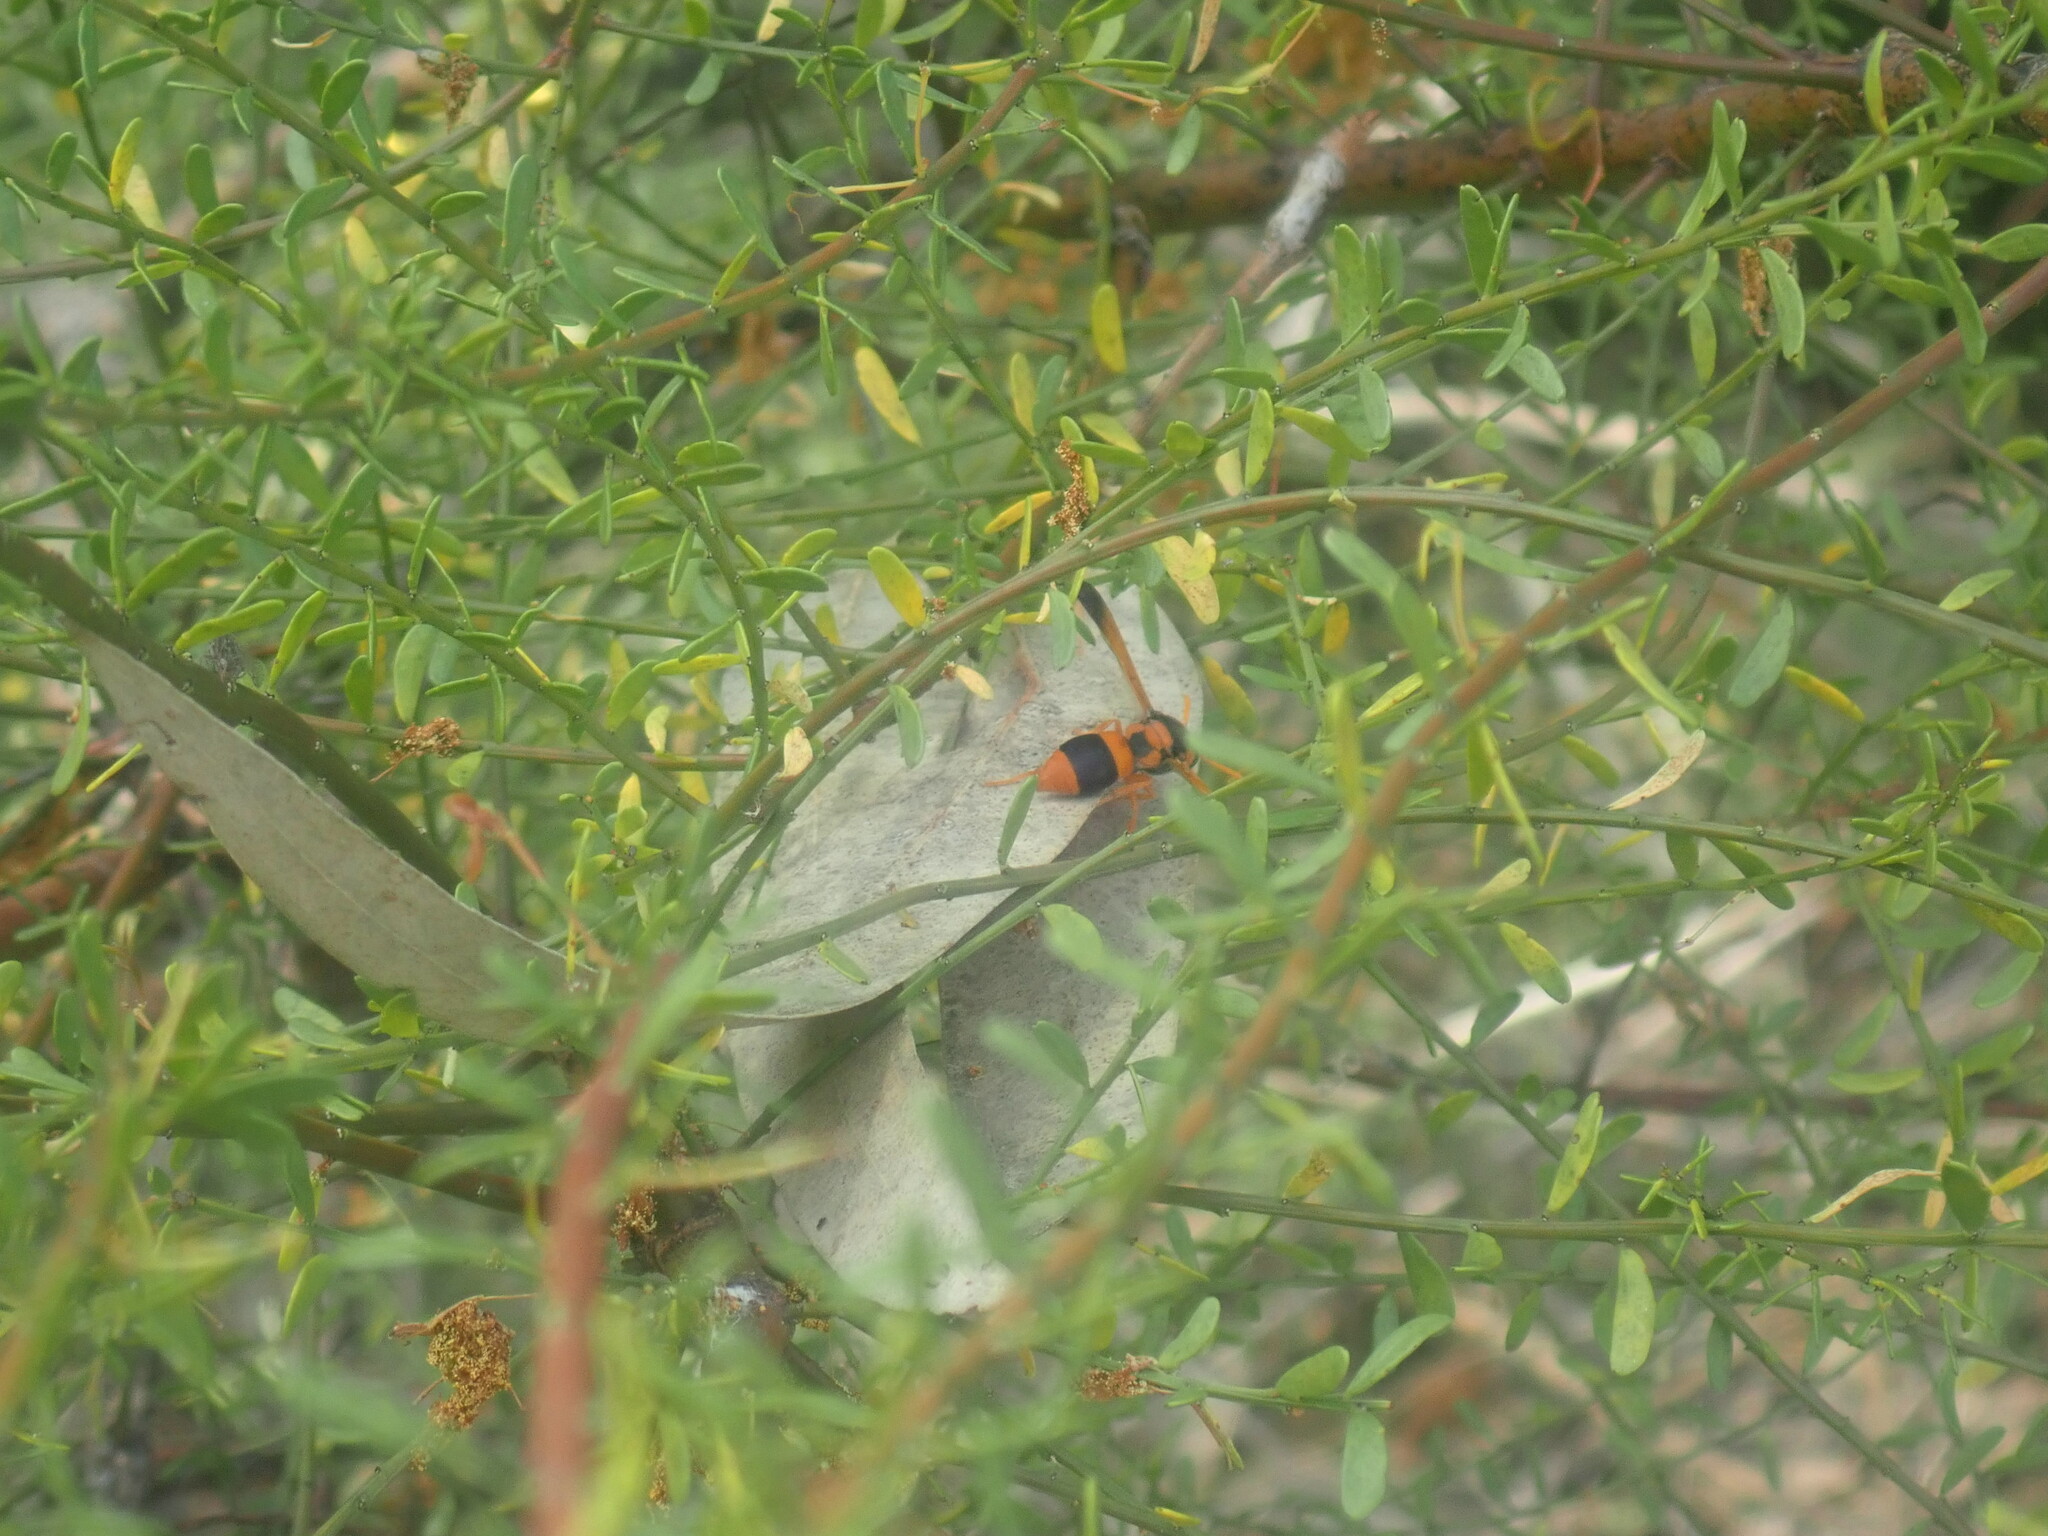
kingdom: Animalia
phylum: Arthropoda
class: Insecta
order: Hymenoptera
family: Eumenidae
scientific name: Eumenidae
